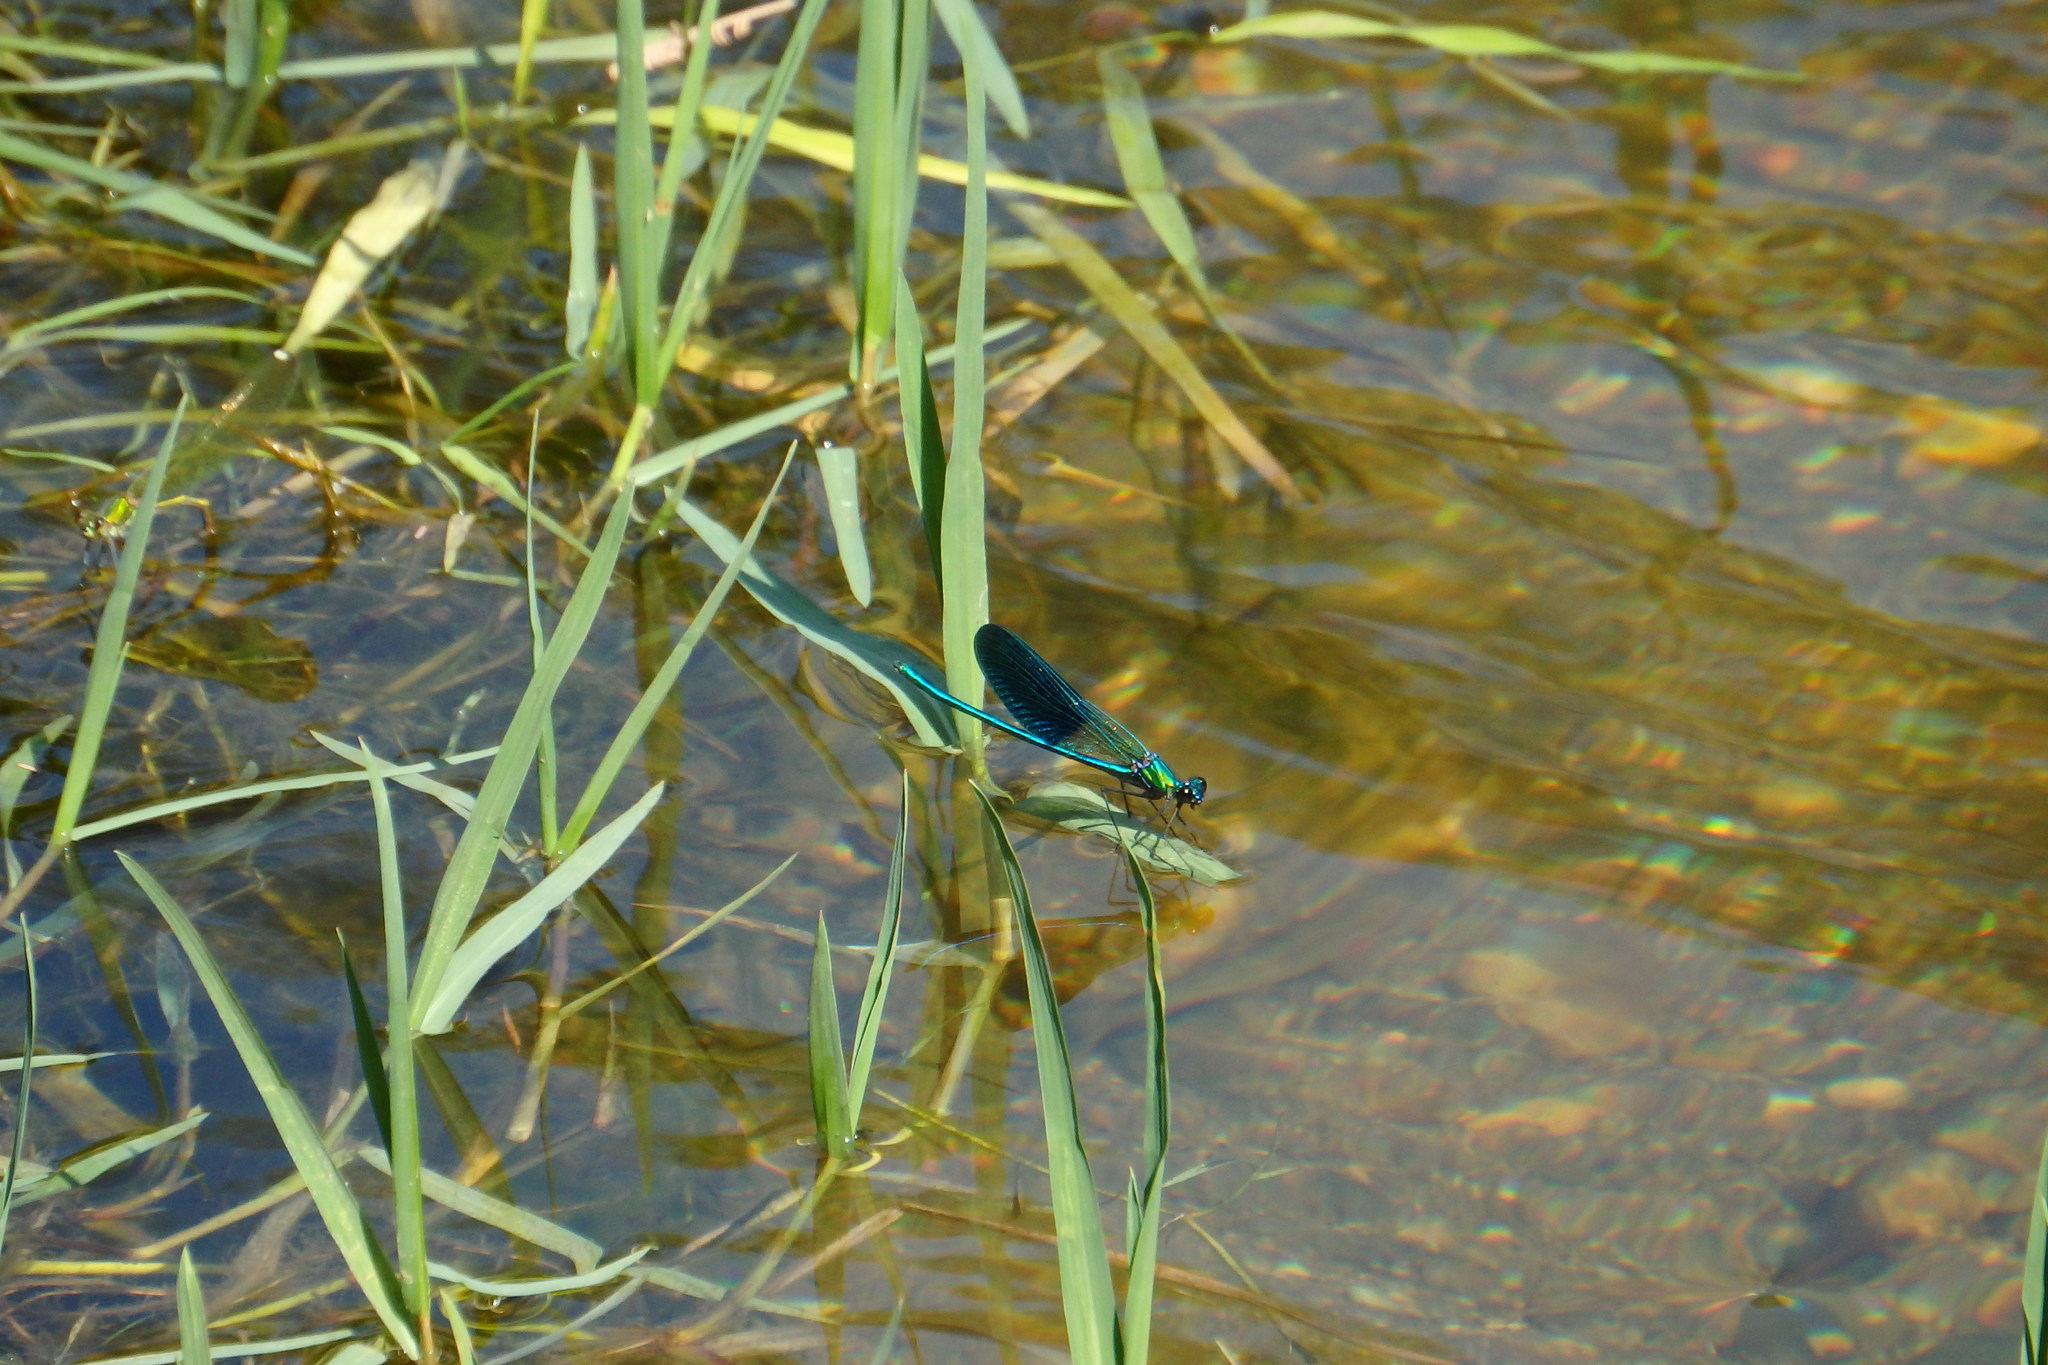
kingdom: Animalia
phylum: Arthropoda
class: Insecta
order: Odonata
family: Calopterygidae
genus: Calopteryx
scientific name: Calopteryx xanthostoma
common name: Western demoiselle
